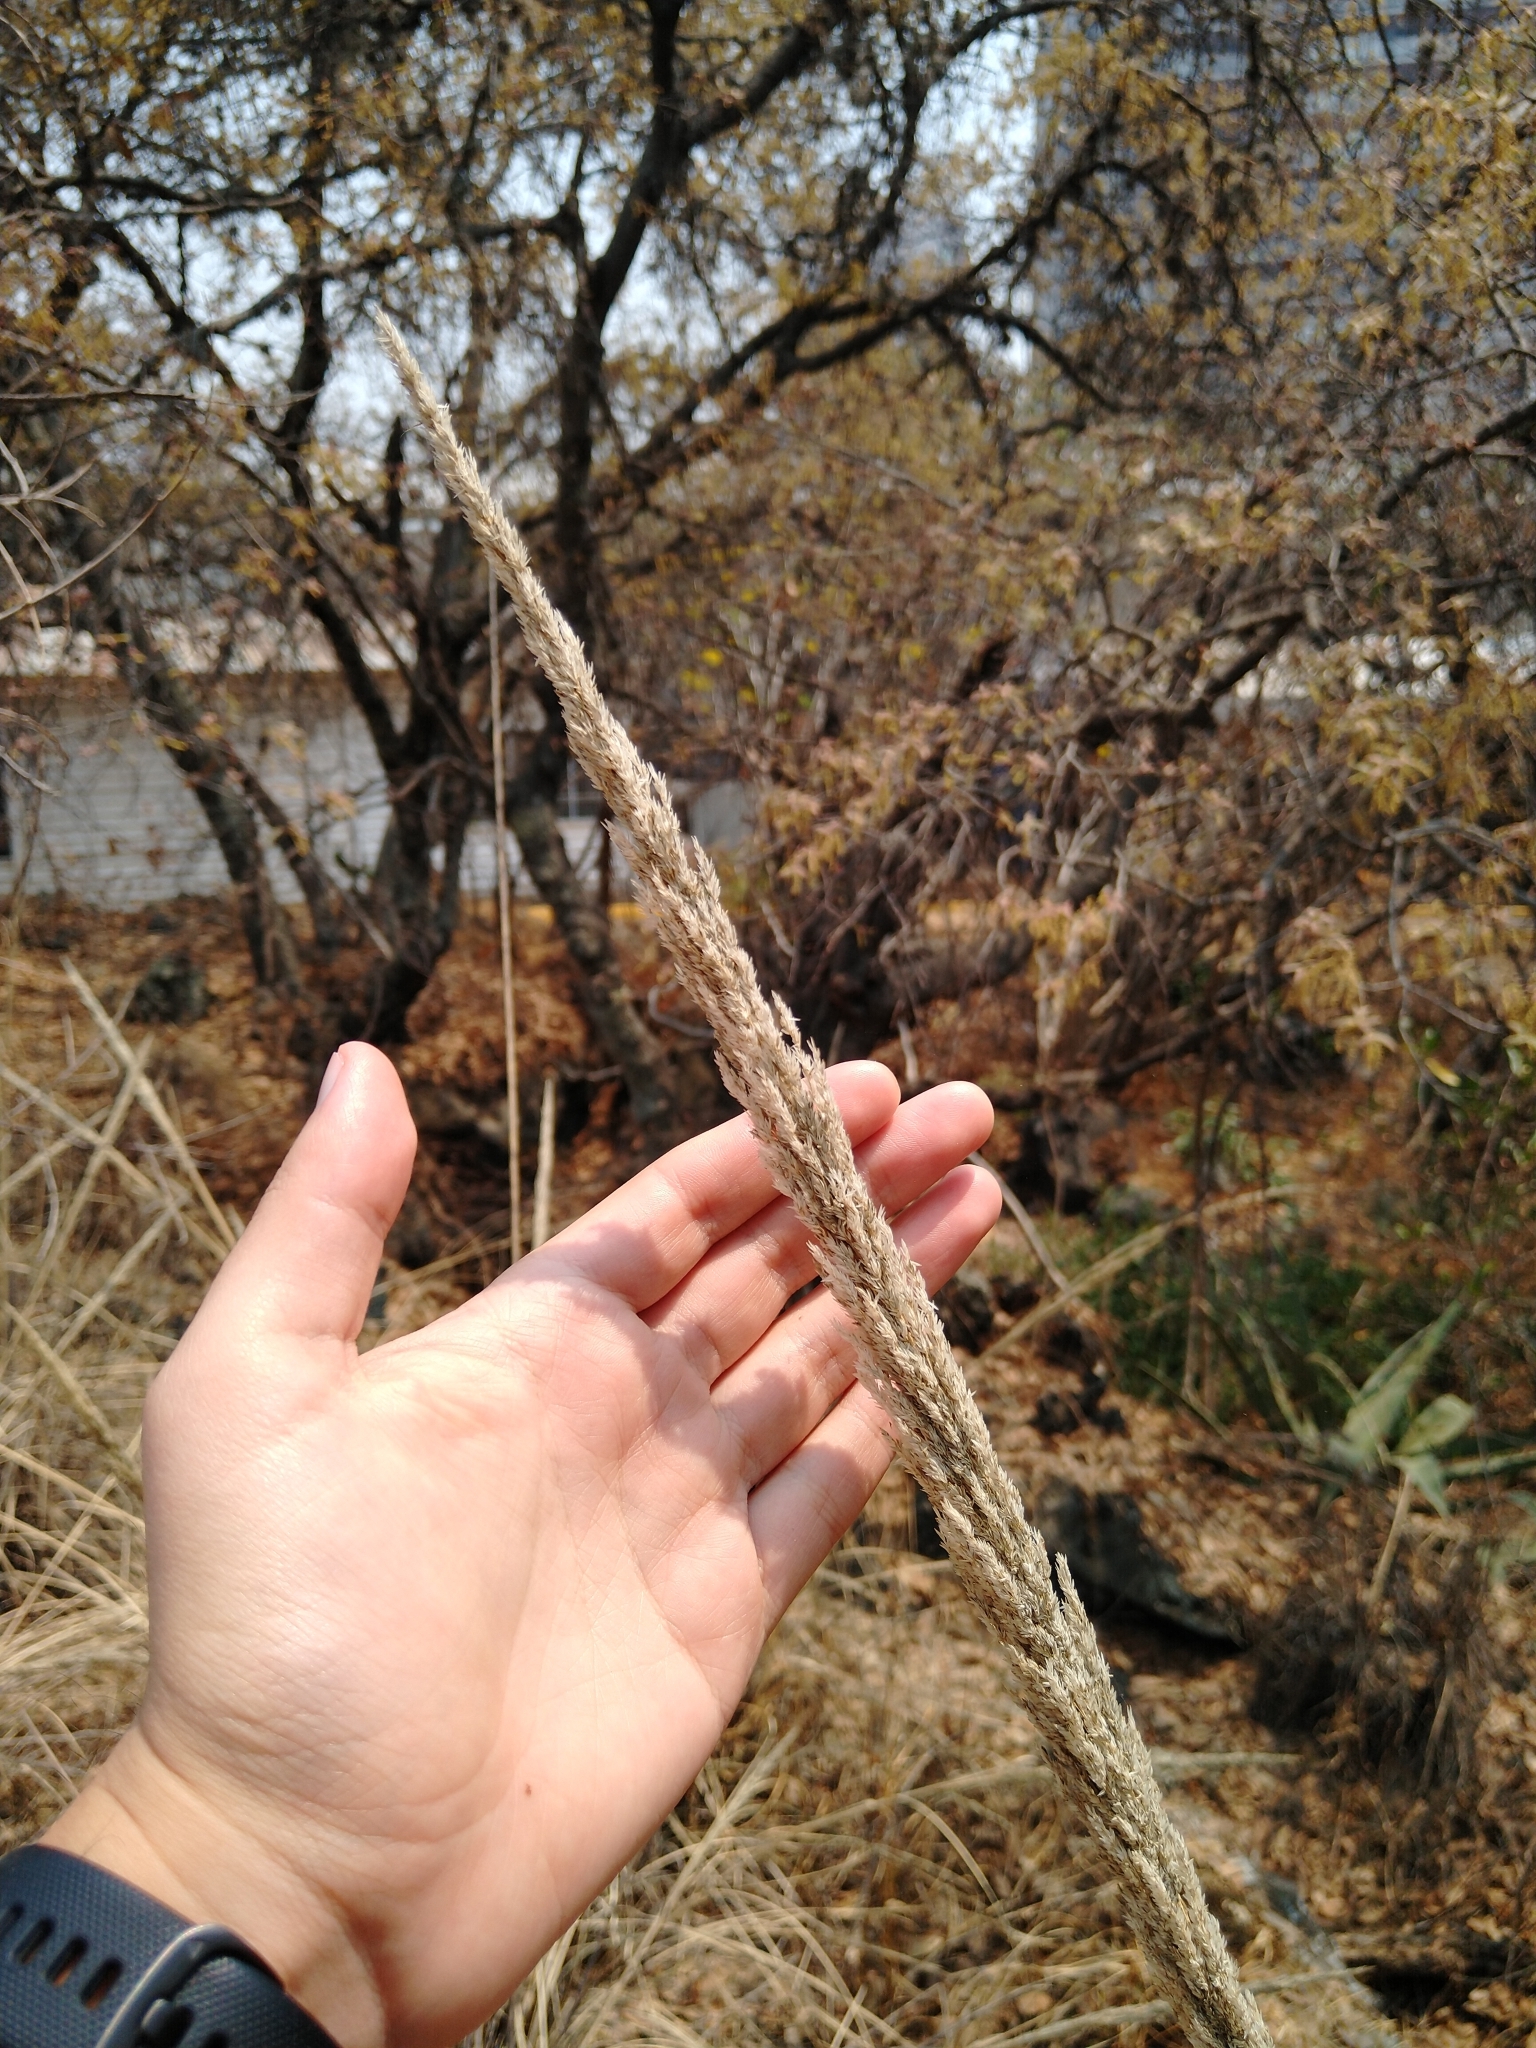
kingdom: Plantae
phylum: Tracheophyta
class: Liliopsida
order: Poales
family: Poaceae
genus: Muhlenbergia
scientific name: Muhlenbergia robusta
